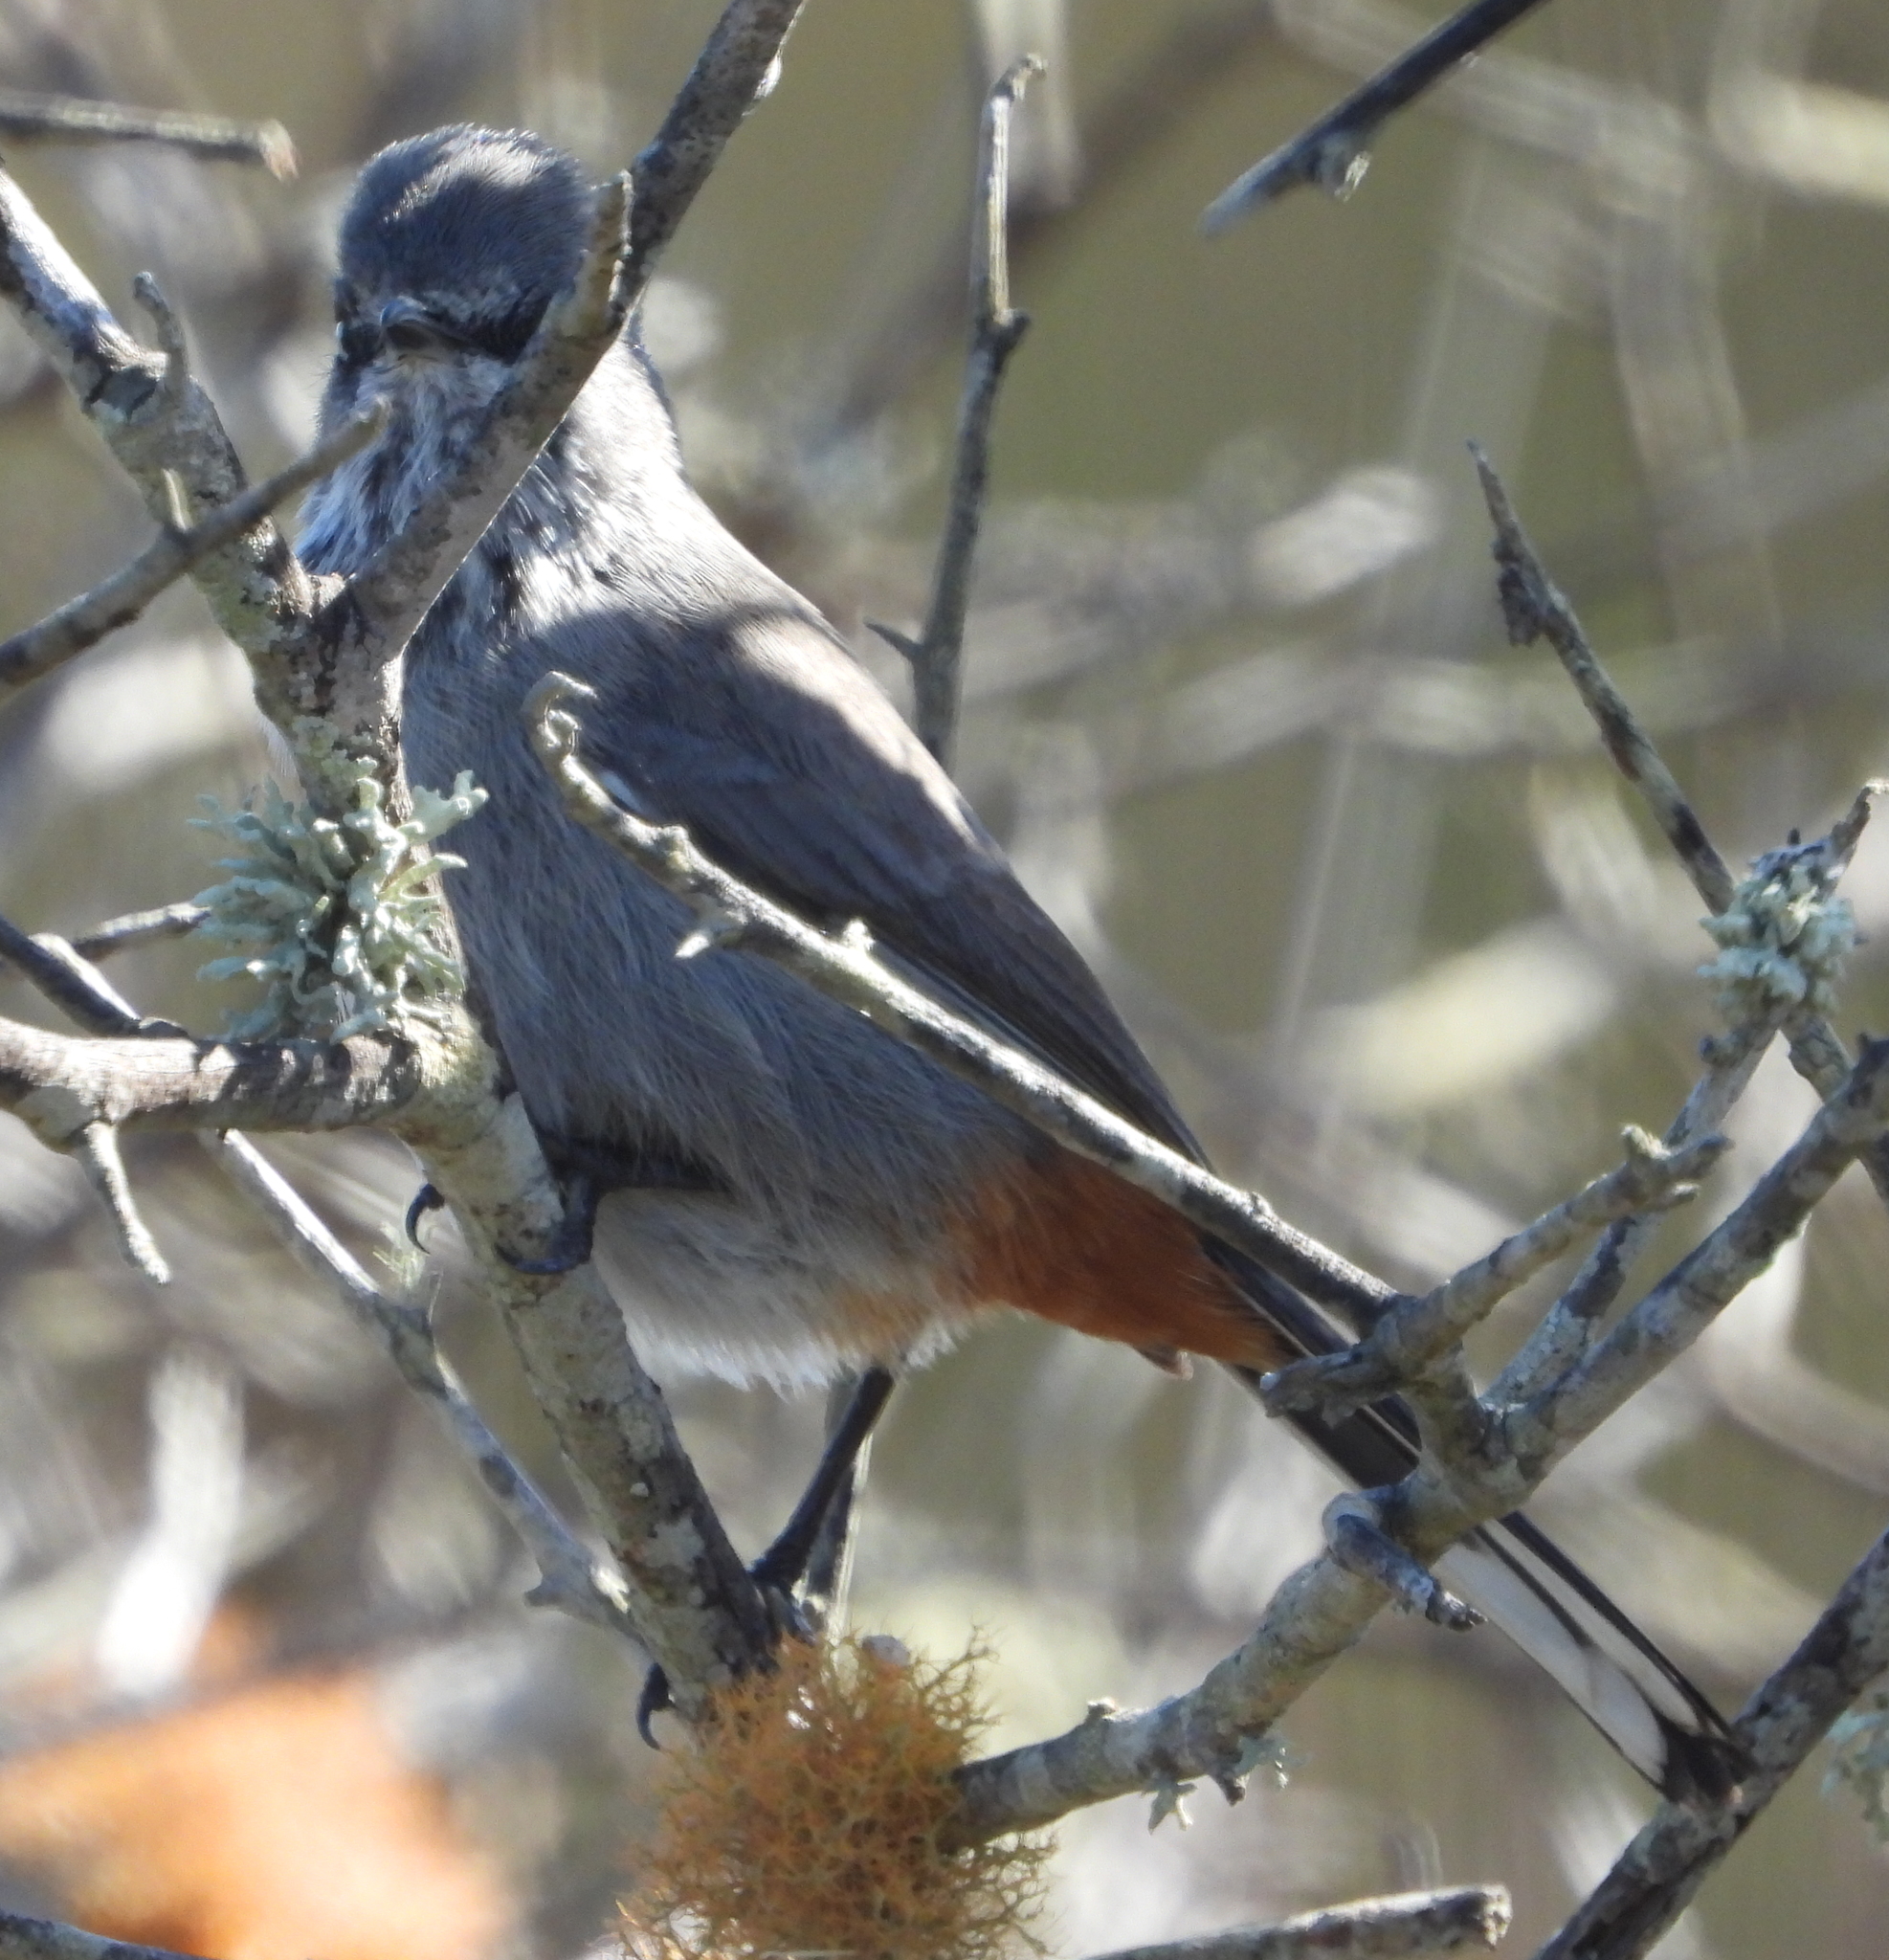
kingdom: Animalia
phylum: Chordata
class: Aves
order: Passeriformes
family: Sylviidae
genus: Sylvia
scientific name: Sylvia subcaerulea
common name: Chestnut-vented warbler
